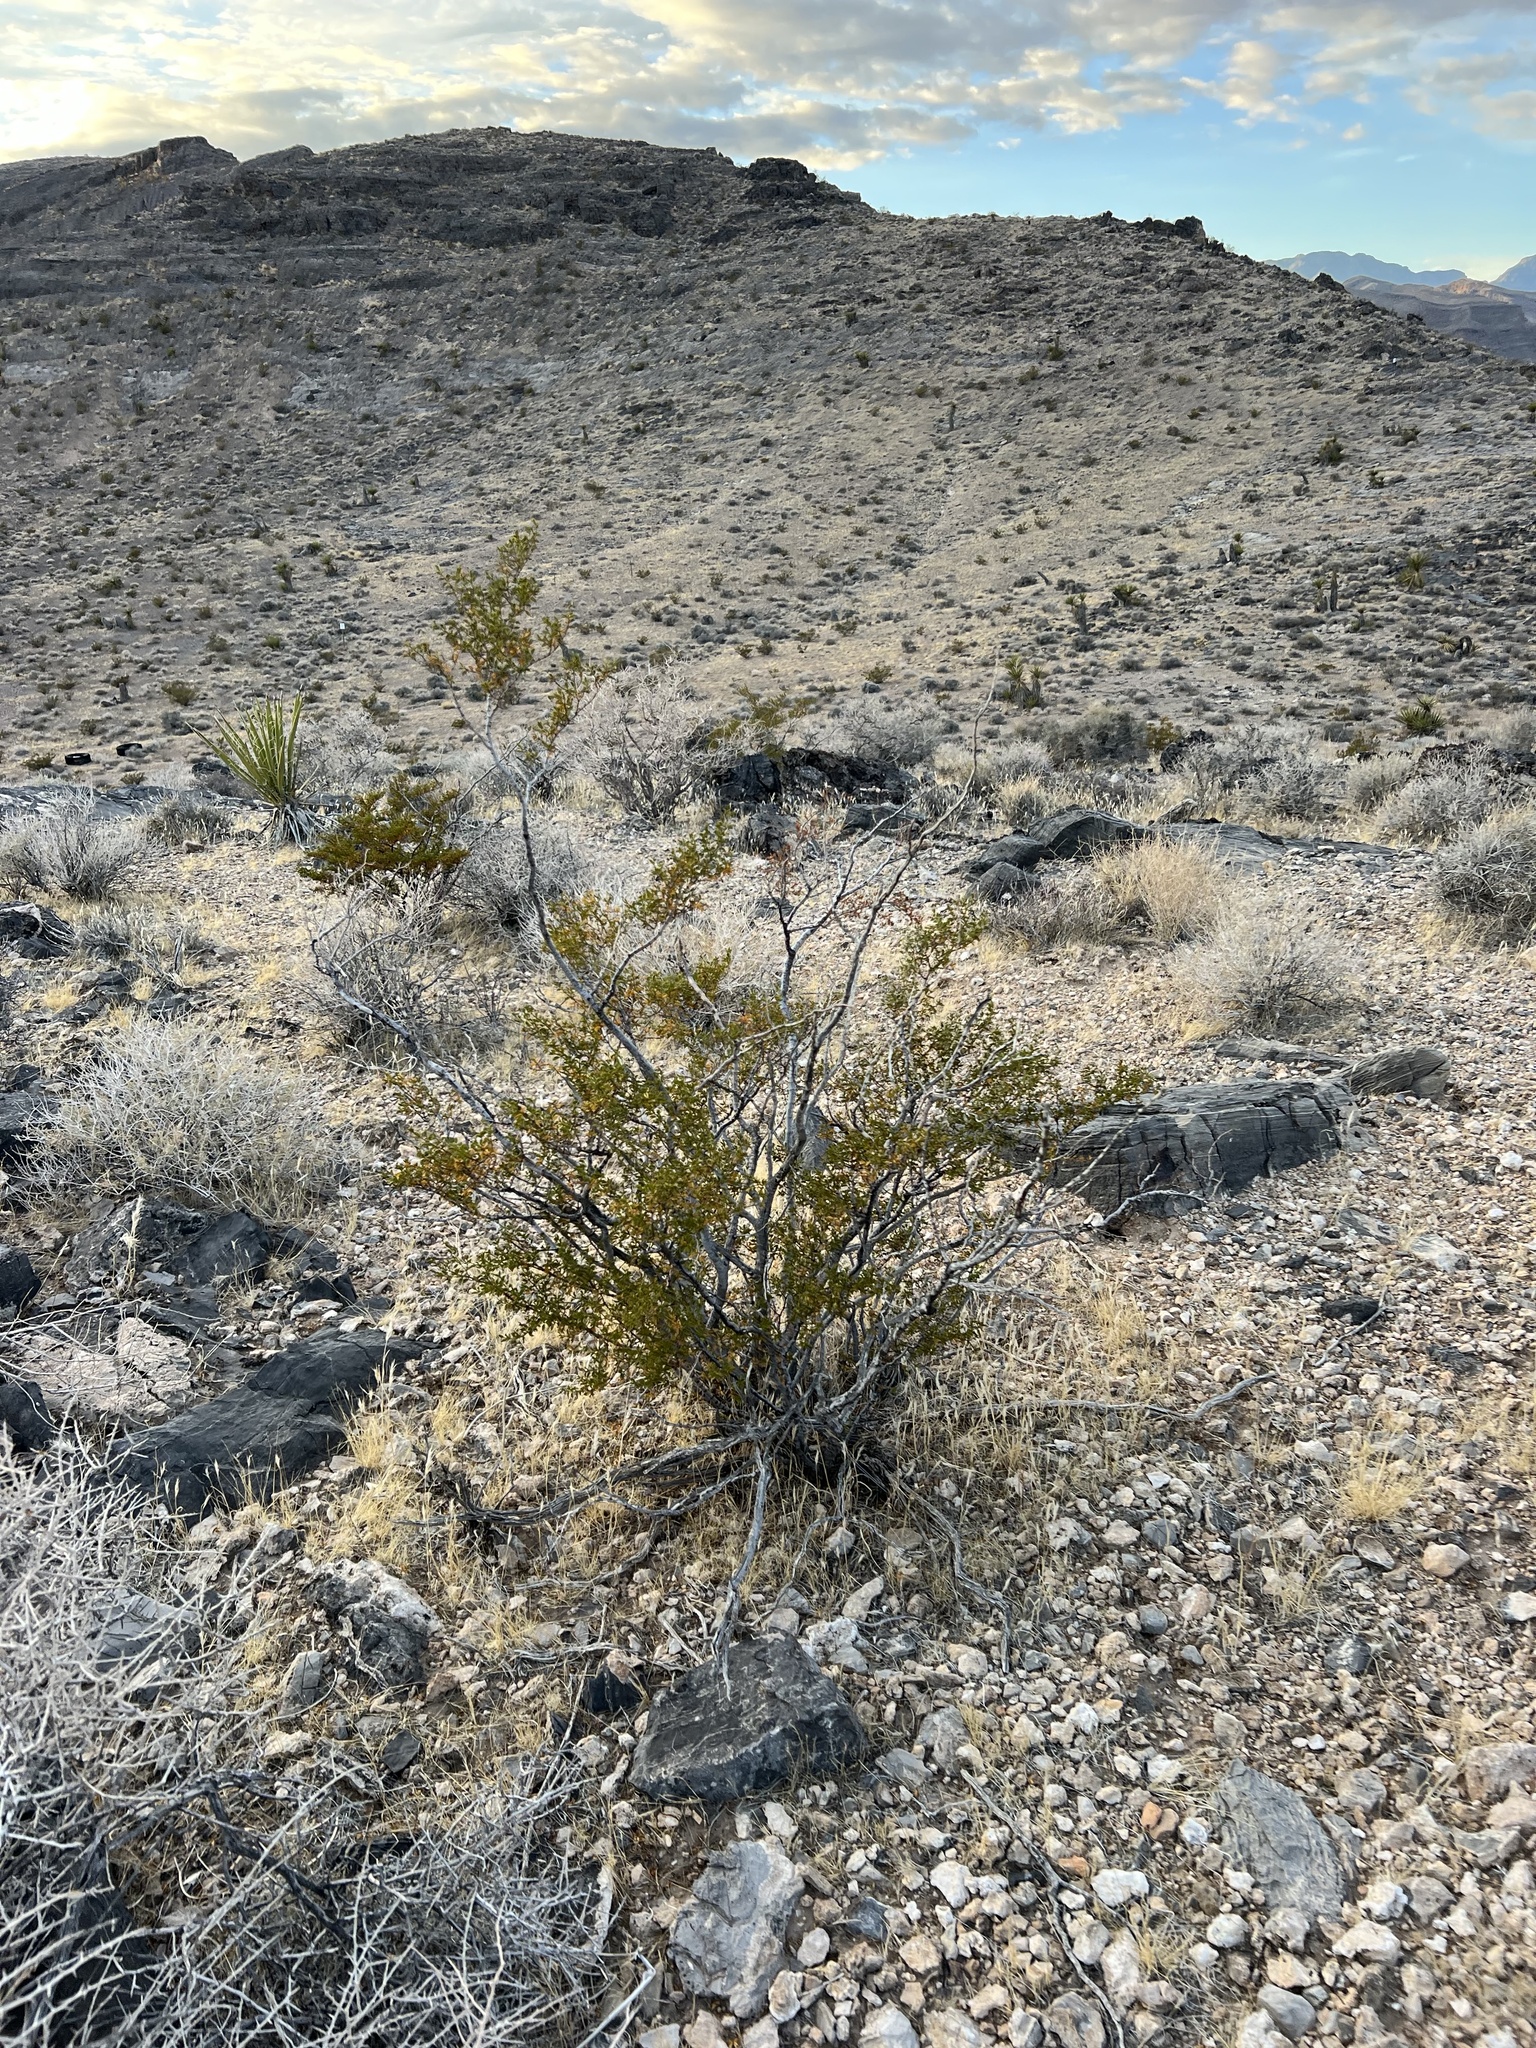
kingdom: Plantae
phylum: Tracheophyta
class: Magnoliopsida
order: Zygophyllales
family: Zygophyllaceae
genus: Larrea
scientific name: Larrea tridentata
